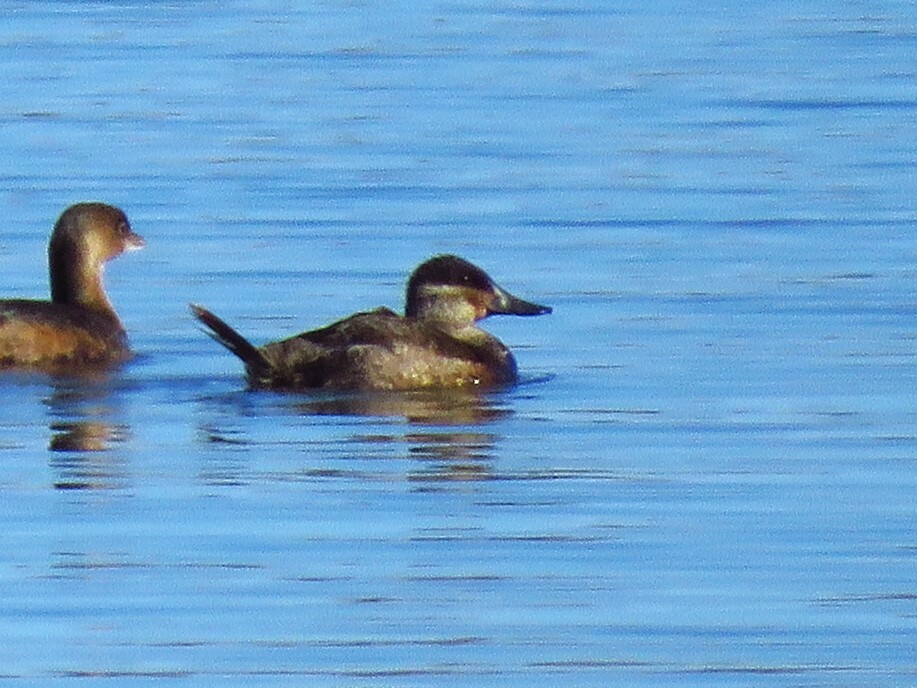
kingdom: Animalia
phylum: Chordata
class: Aves
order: Anseriformes
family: Anatidae
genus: Oxyura
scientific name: Oxyura jamaicensis
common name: Ruddy duck
